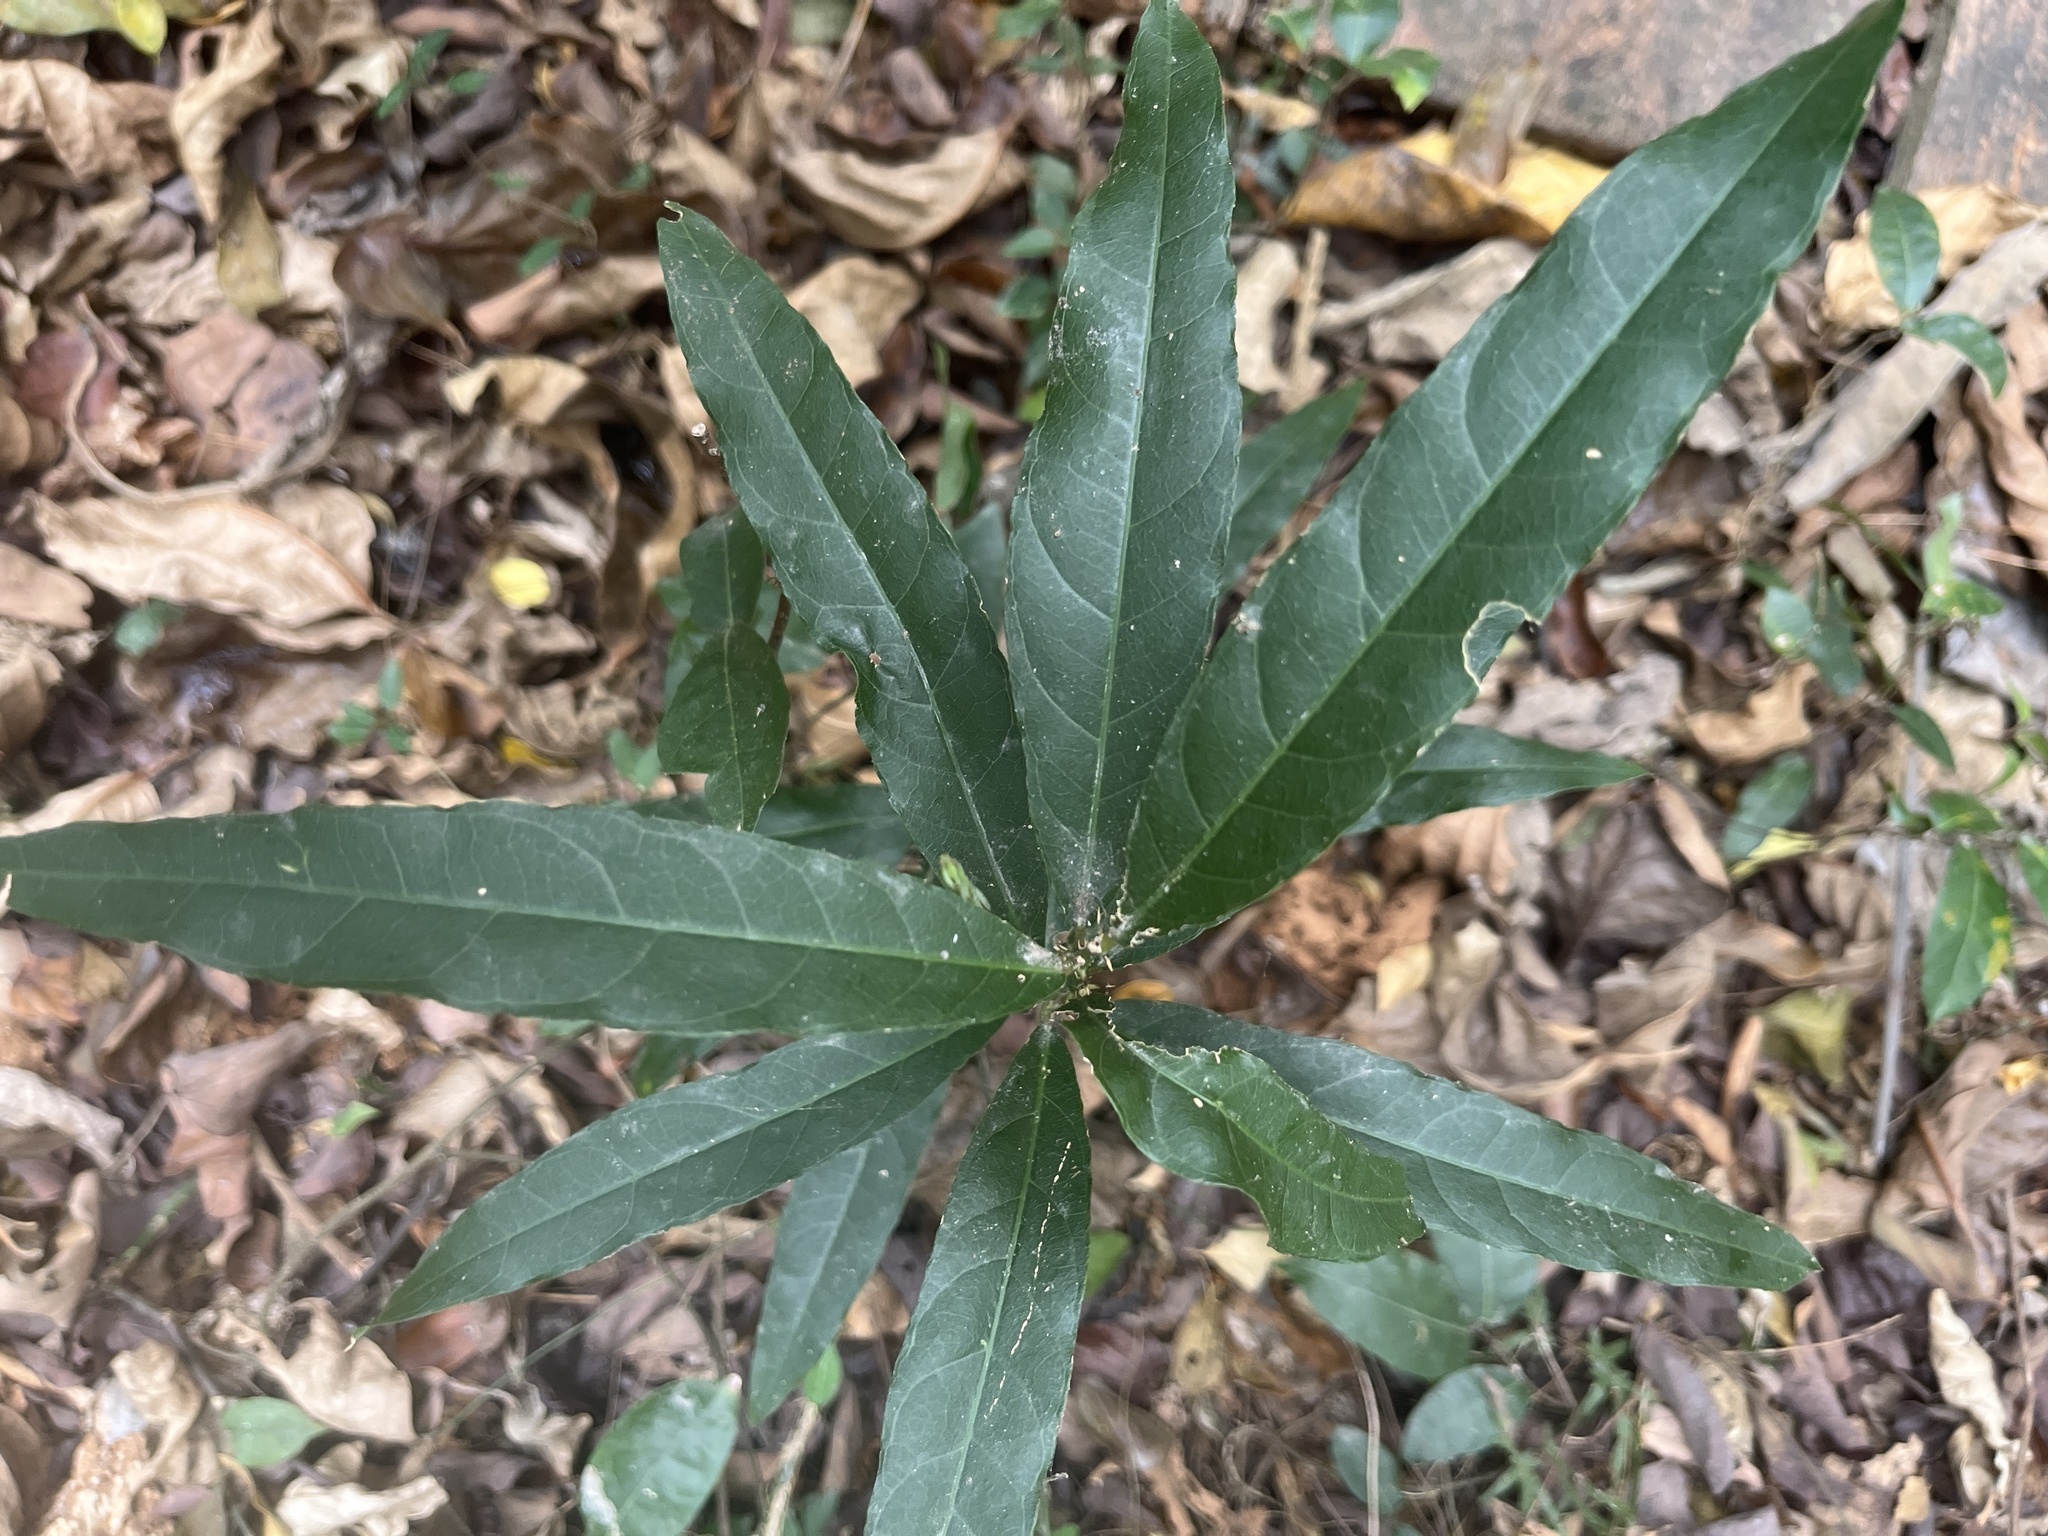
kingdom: Plantae
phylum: Tracheophyta
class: Magnoliopsida
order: Brassicales
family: Capparaceae
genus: Capparis
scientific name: Capparis micracantha
